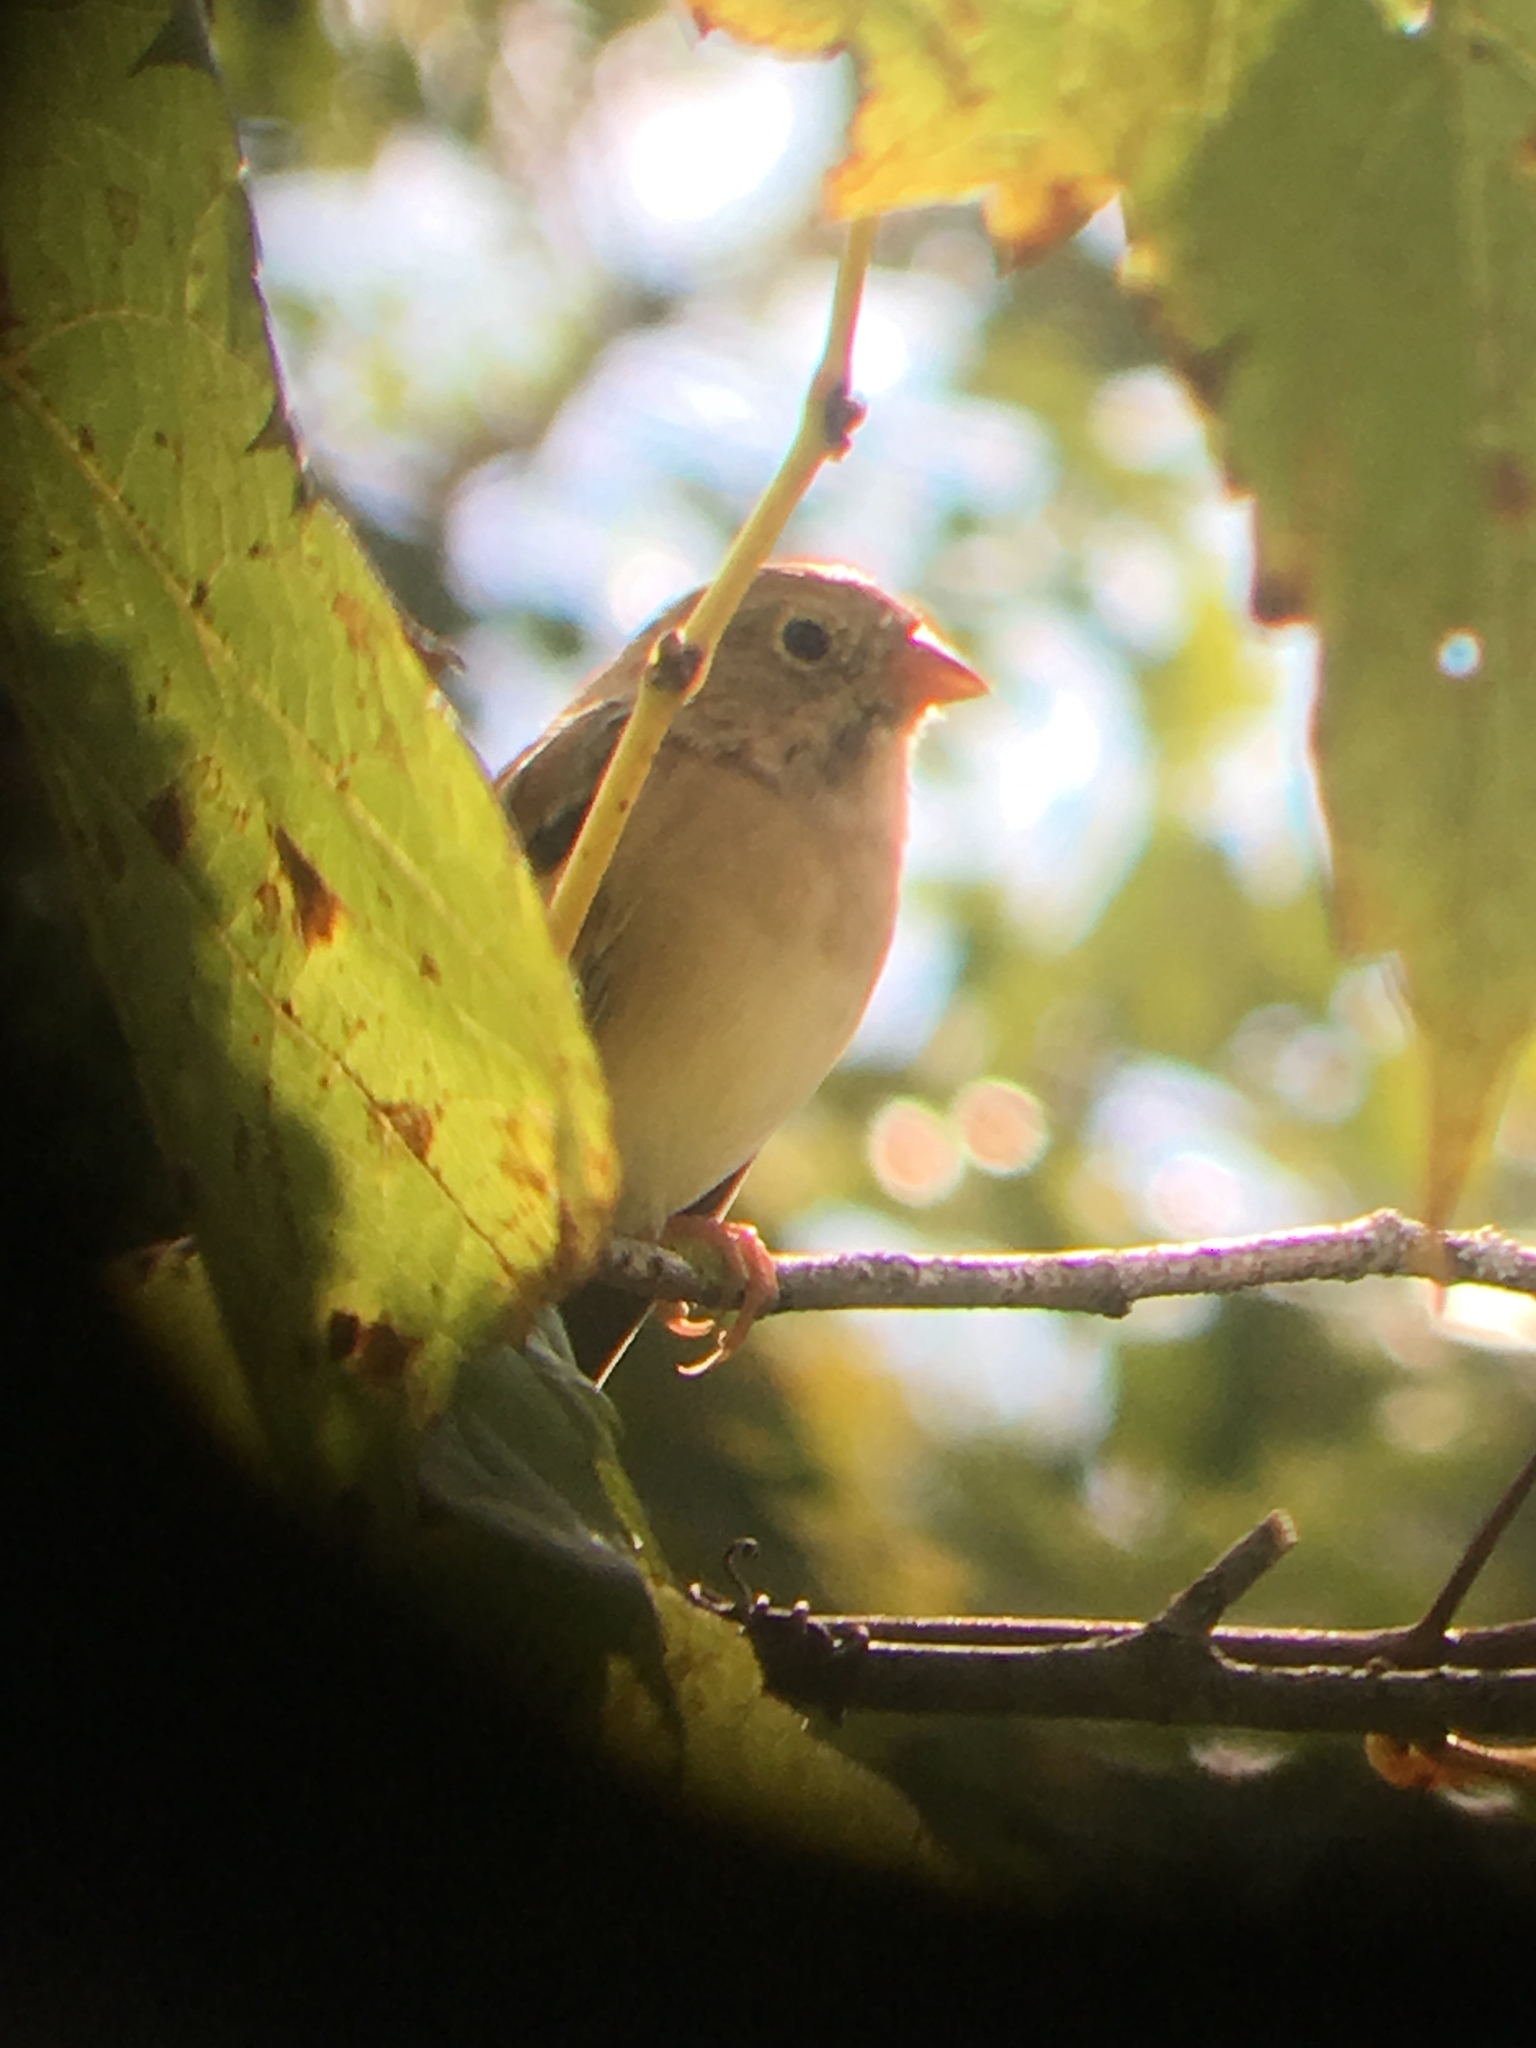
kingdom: Animalia
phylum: Chordata
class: Aves
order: Passeriformes
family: Passerellidae
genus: Spizella
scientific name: Spizella pusilla
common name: Field sparrow
